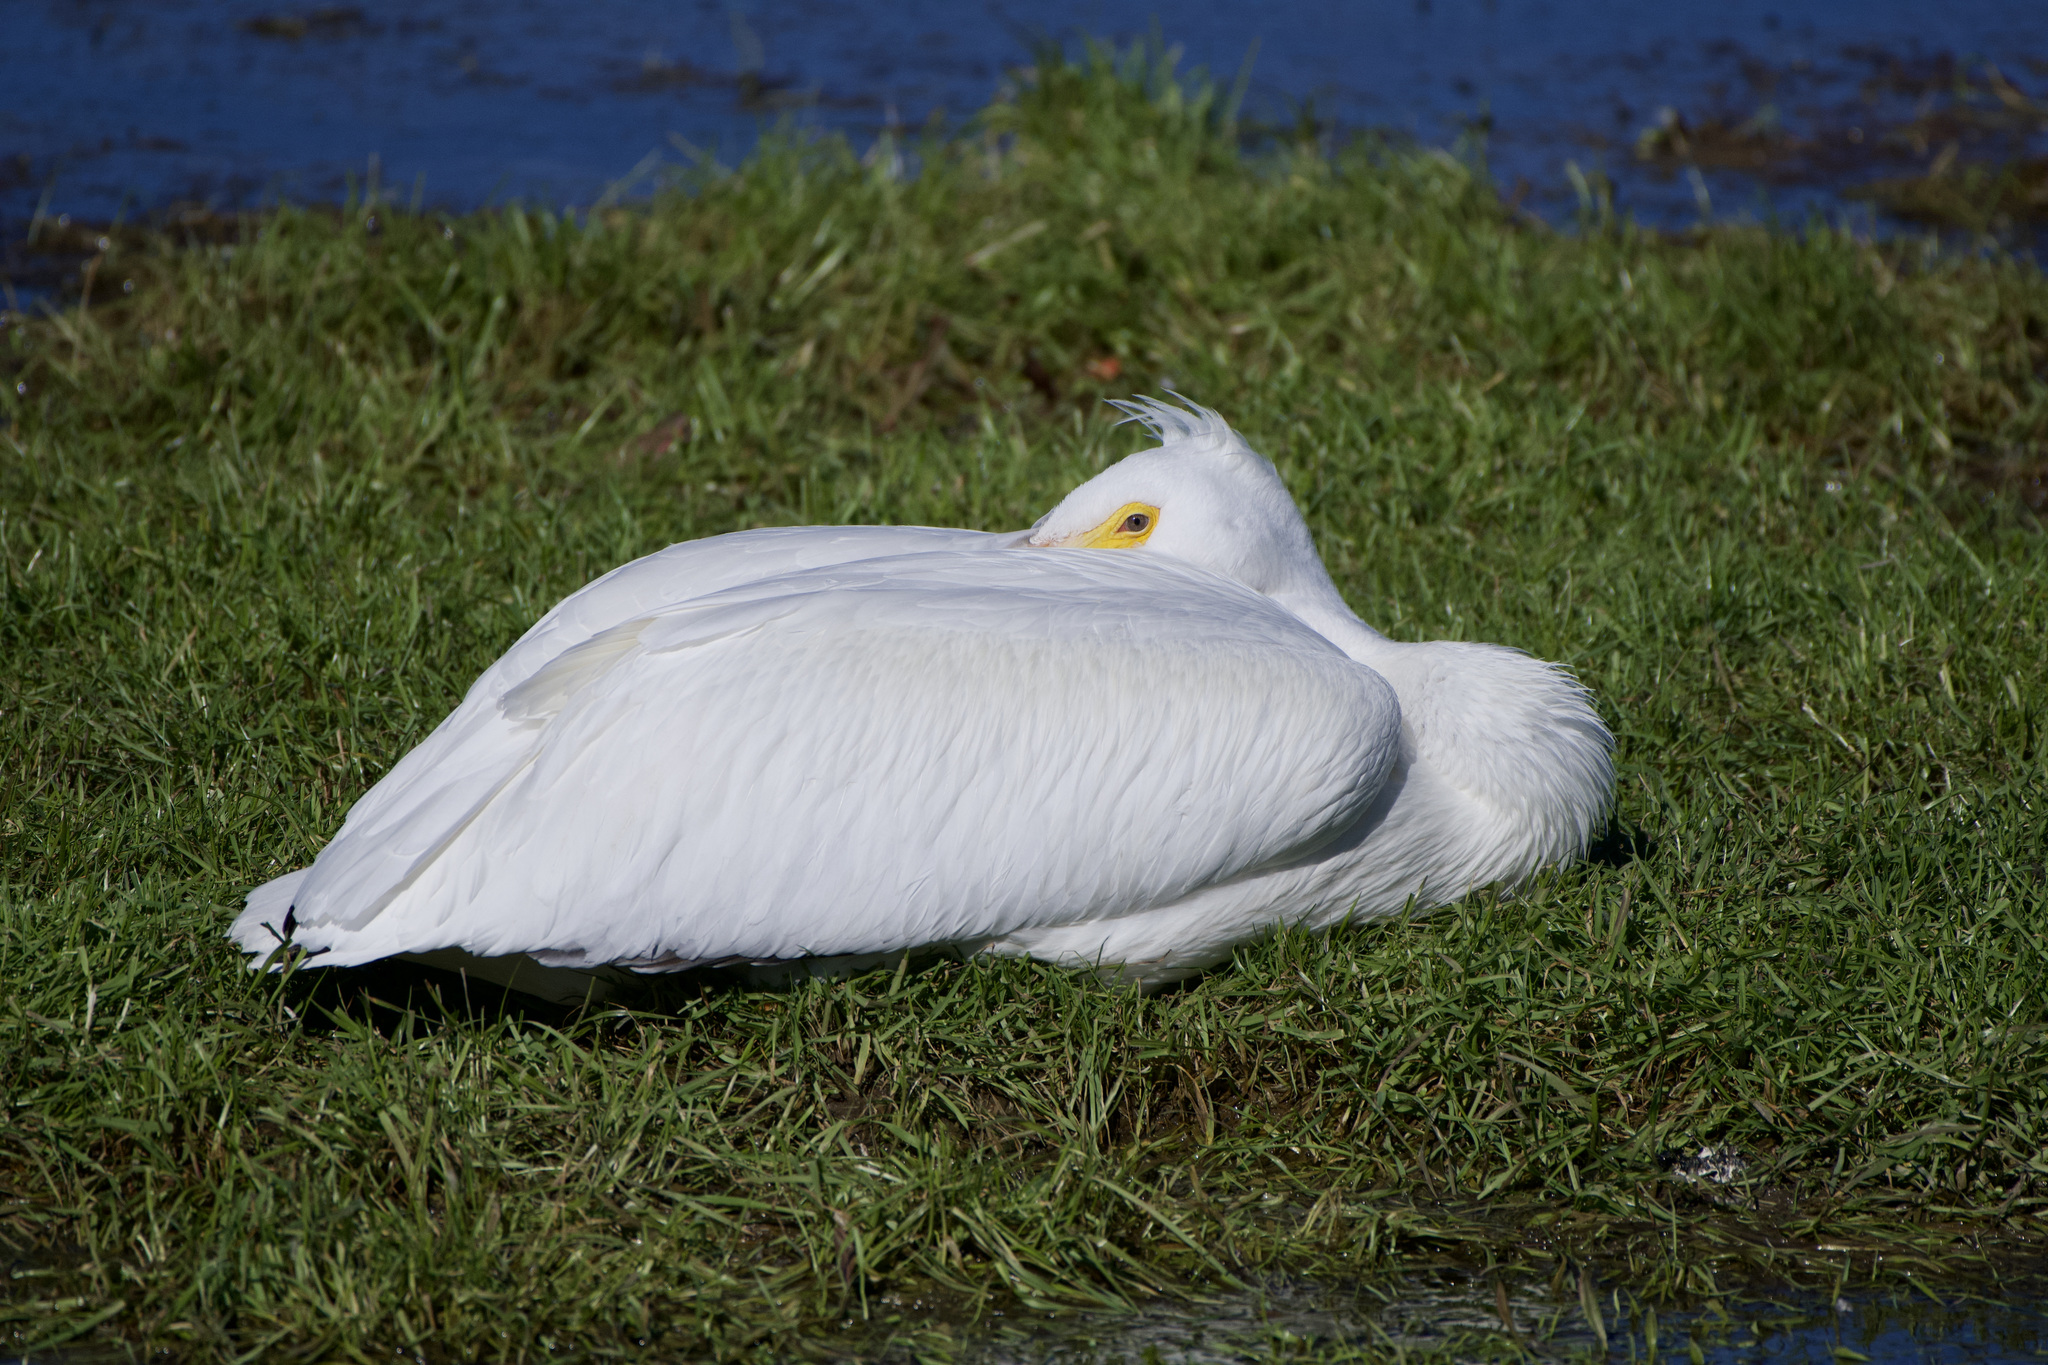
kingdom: Animalia
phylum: Chordata
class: Aves
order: Pelecaniformes
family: Pelecanidae
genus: Pelecanus
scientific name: Pelecanus erythrorhynchos
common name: American white pelican
